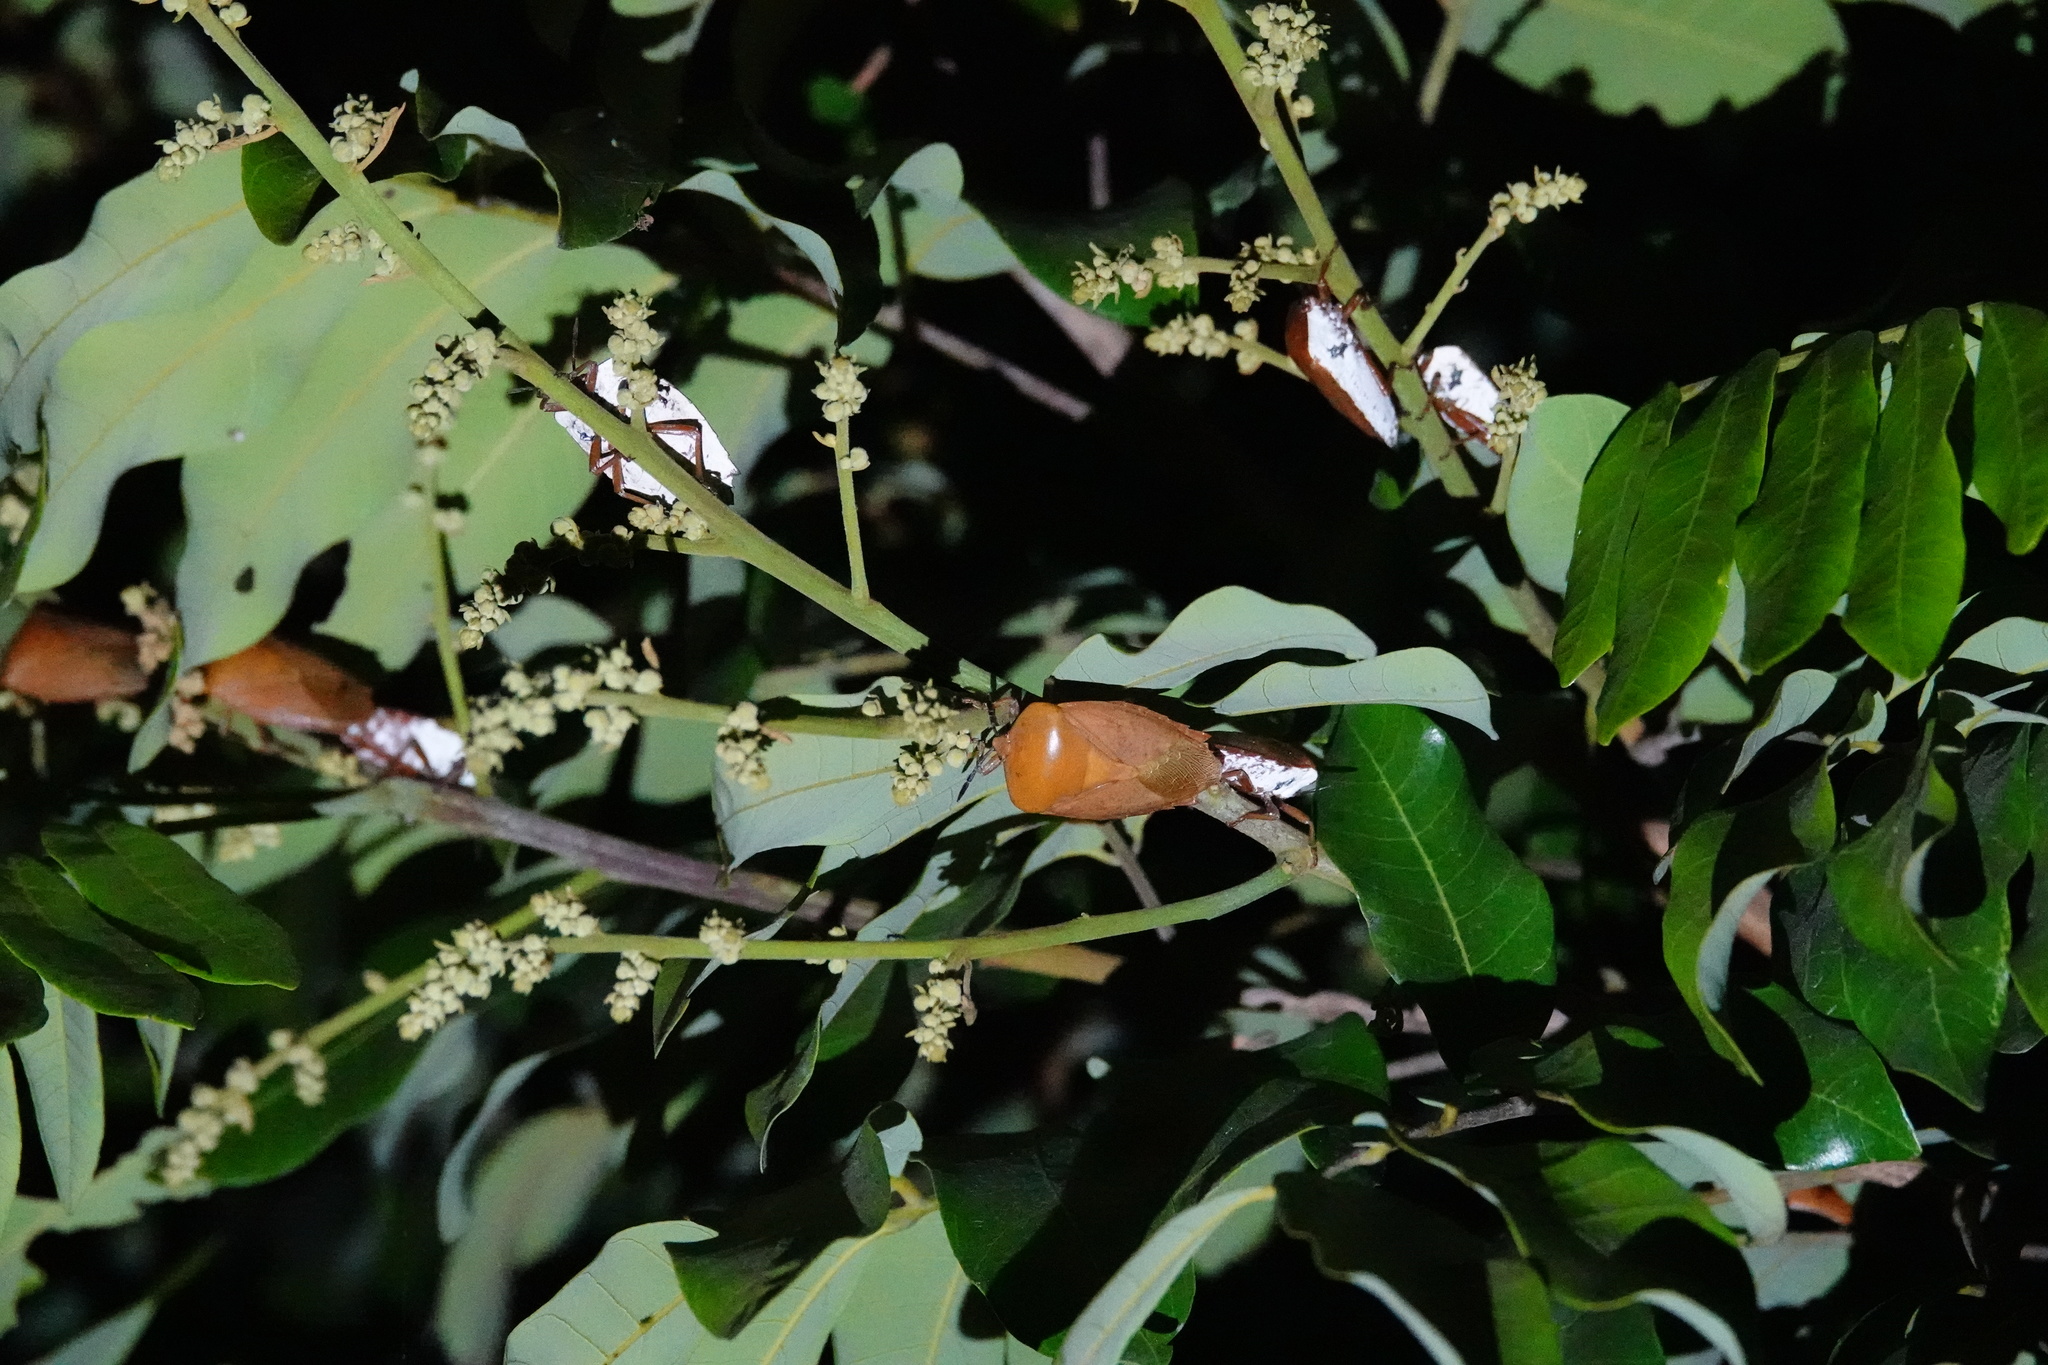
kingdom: Animalia
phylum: Arthropoda
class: Insecta
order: Hemiptera
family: Tessaratomidae
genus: Tessaratoma
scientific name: Tessaratoma papillosa
